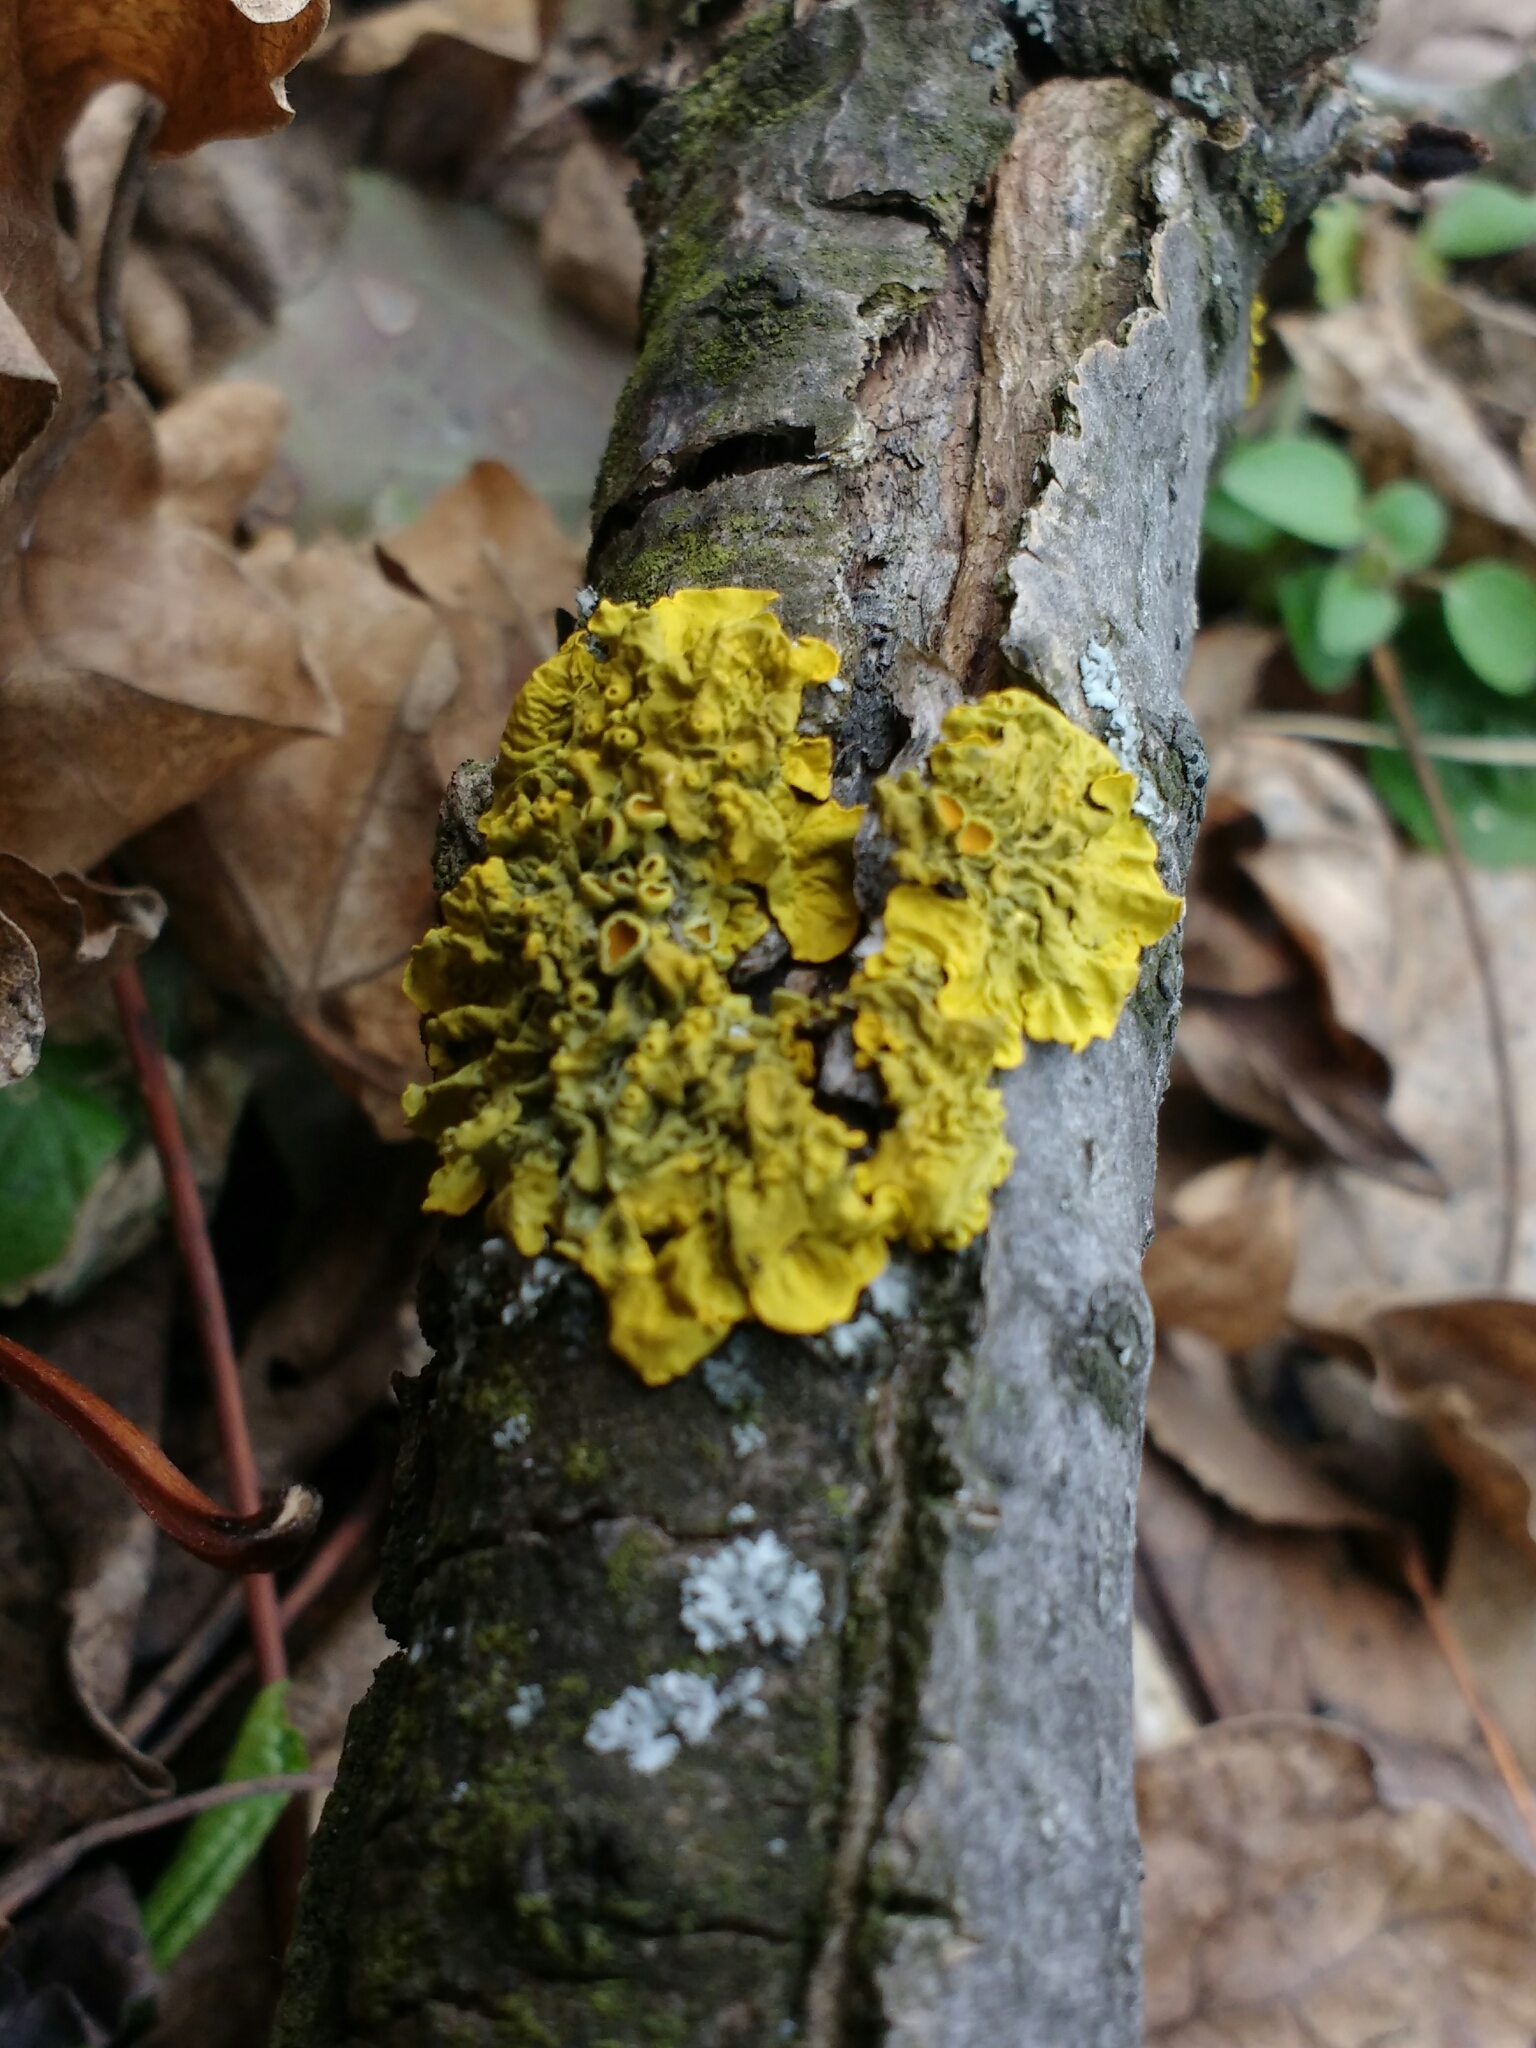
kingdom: Fungi
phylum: Ascomycota
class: Lecanoromycetes
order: Teloschistales
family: Teloschistaceae
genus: Xanthoria
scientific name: Xanthoria parietina
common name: Common orange lichen
